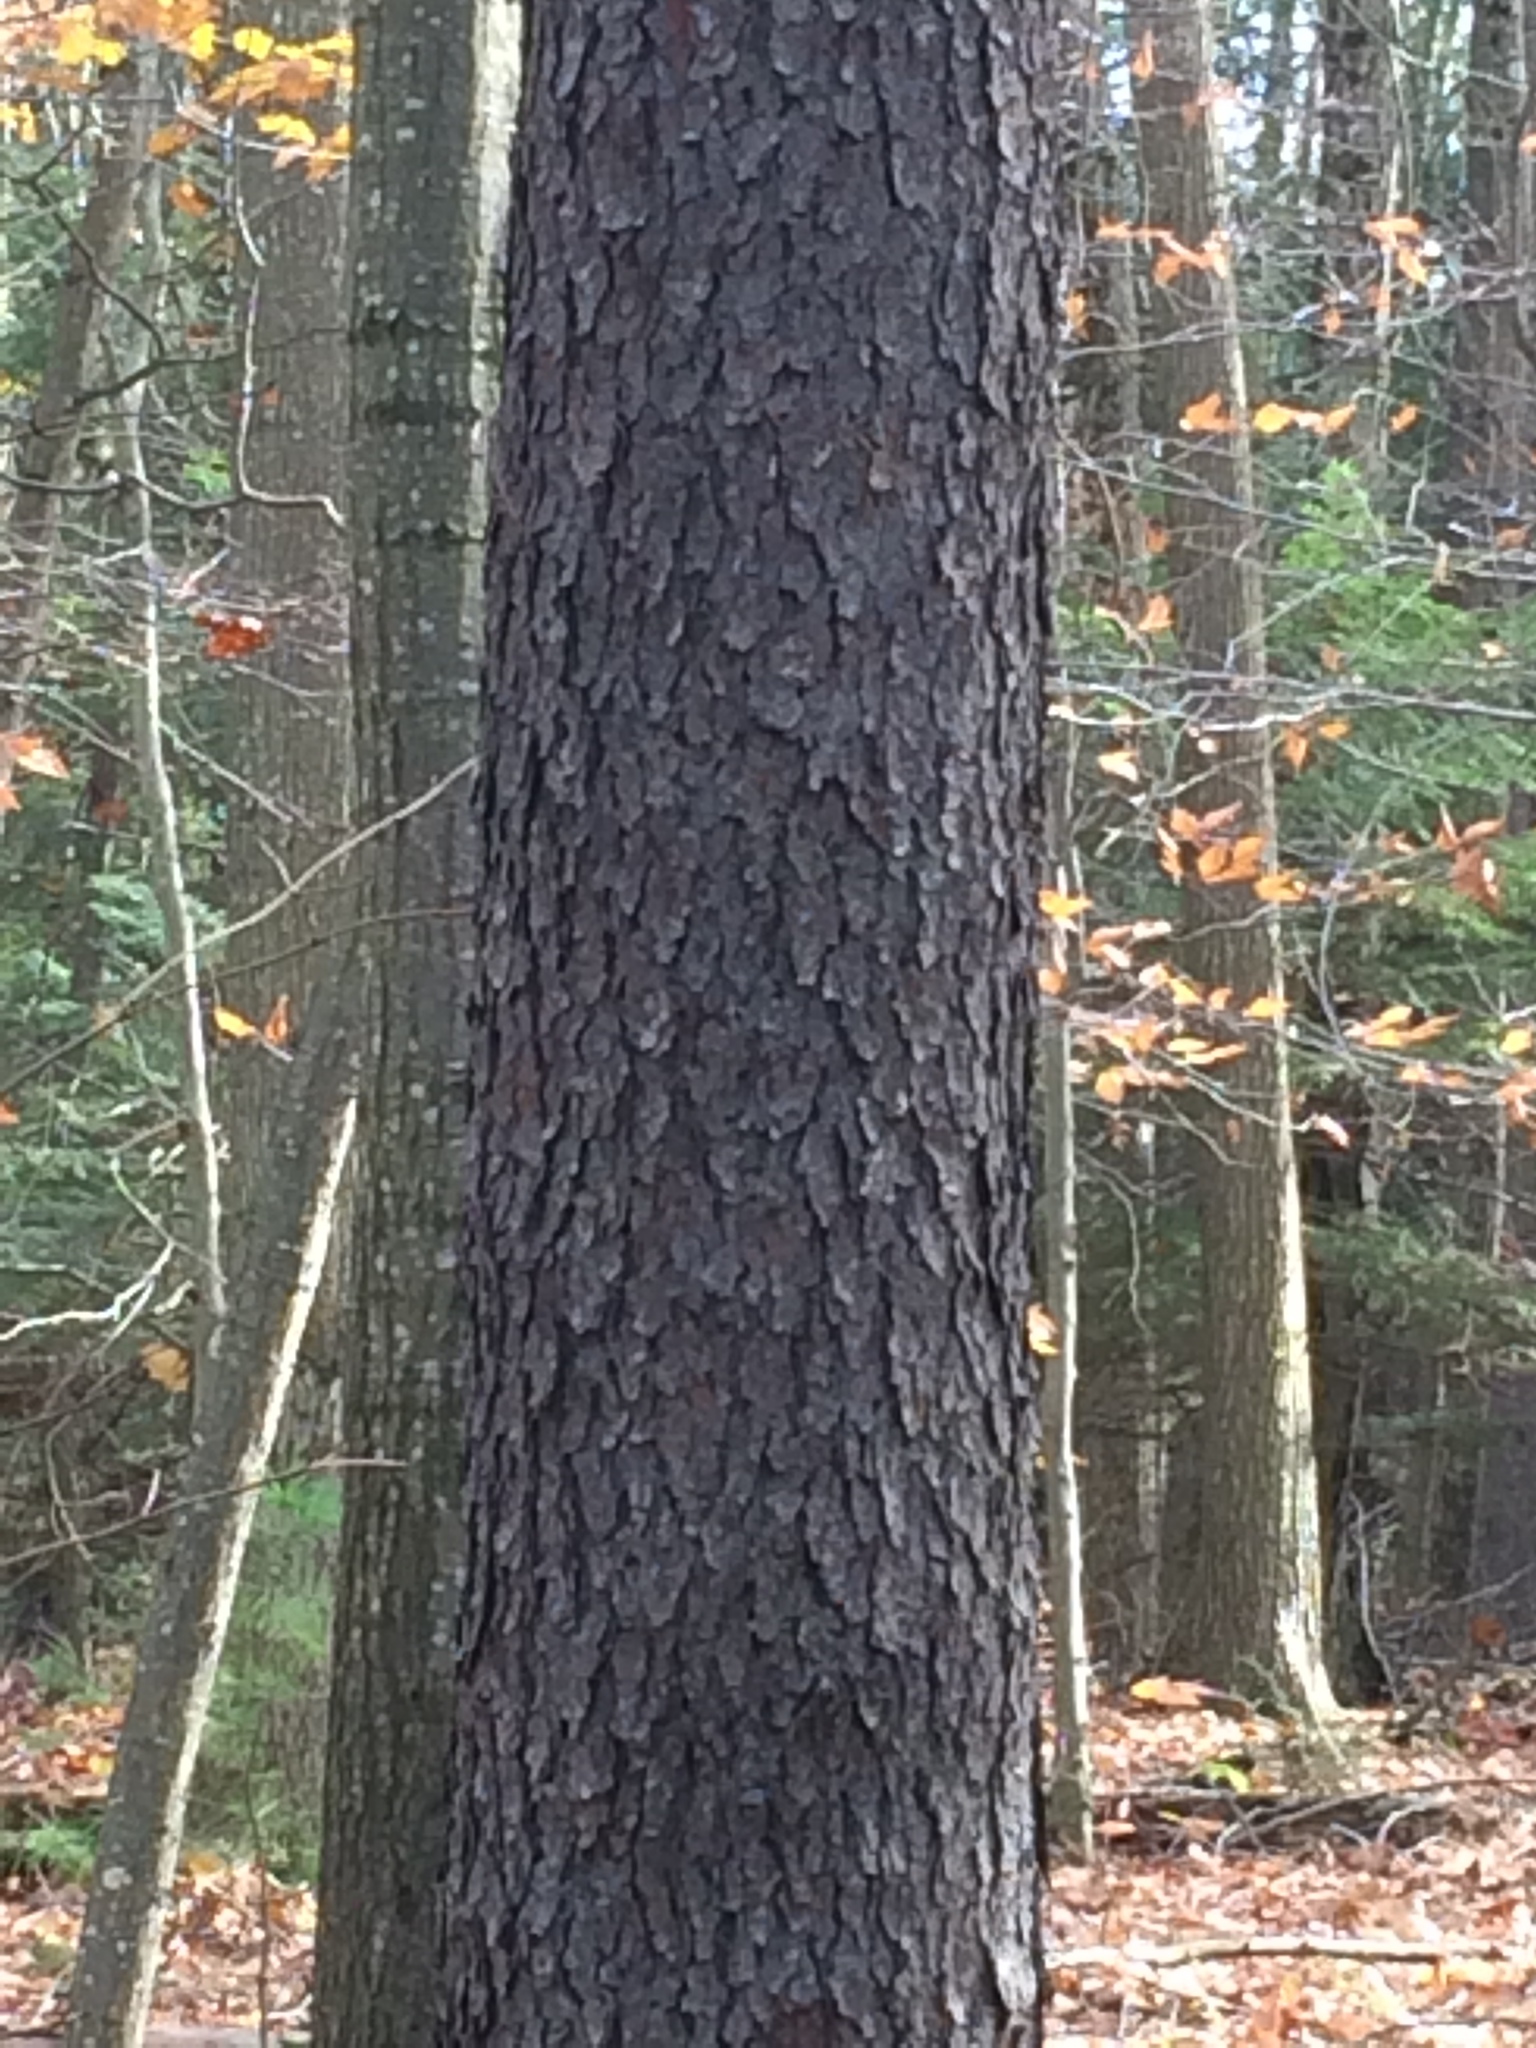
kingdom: Plantae
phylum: Tracheophyta
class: Magnoliopsida
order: Rosales
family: Rosaceae
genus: Prunus
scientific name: Prunus serotina
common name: Black cherry
